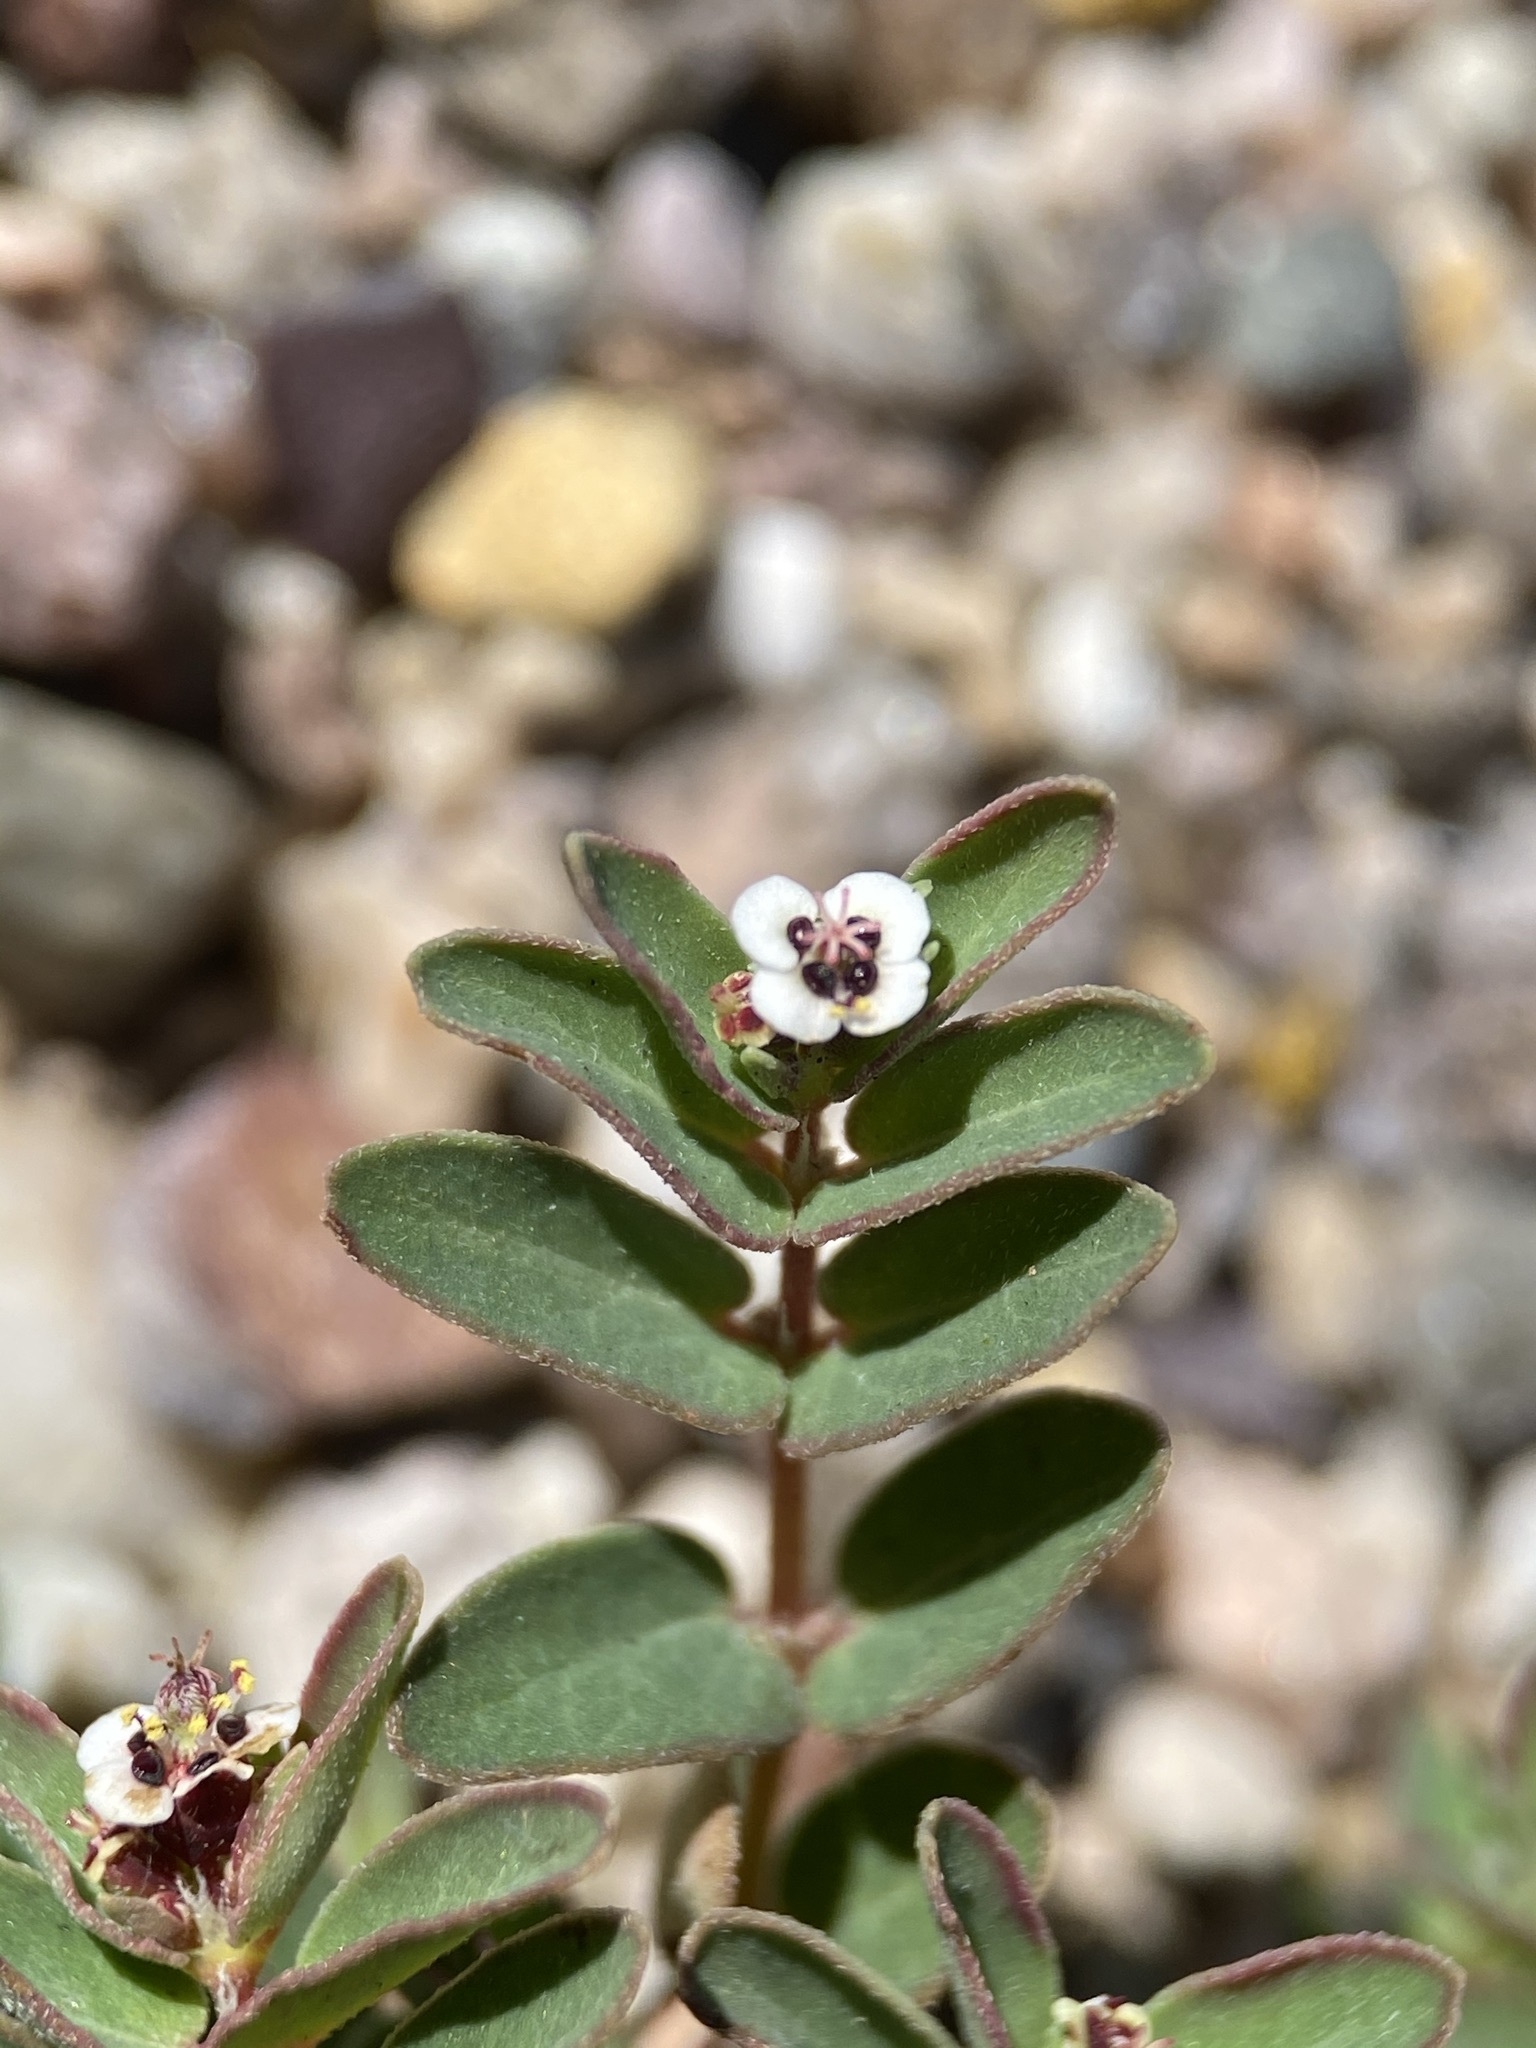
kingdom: Plantae
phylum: Tracheophyta
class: Magnoliopsida
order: Malpighiales
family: Euphorbiaceae
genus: Euphorbia
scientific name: Euphorbia capitellata
